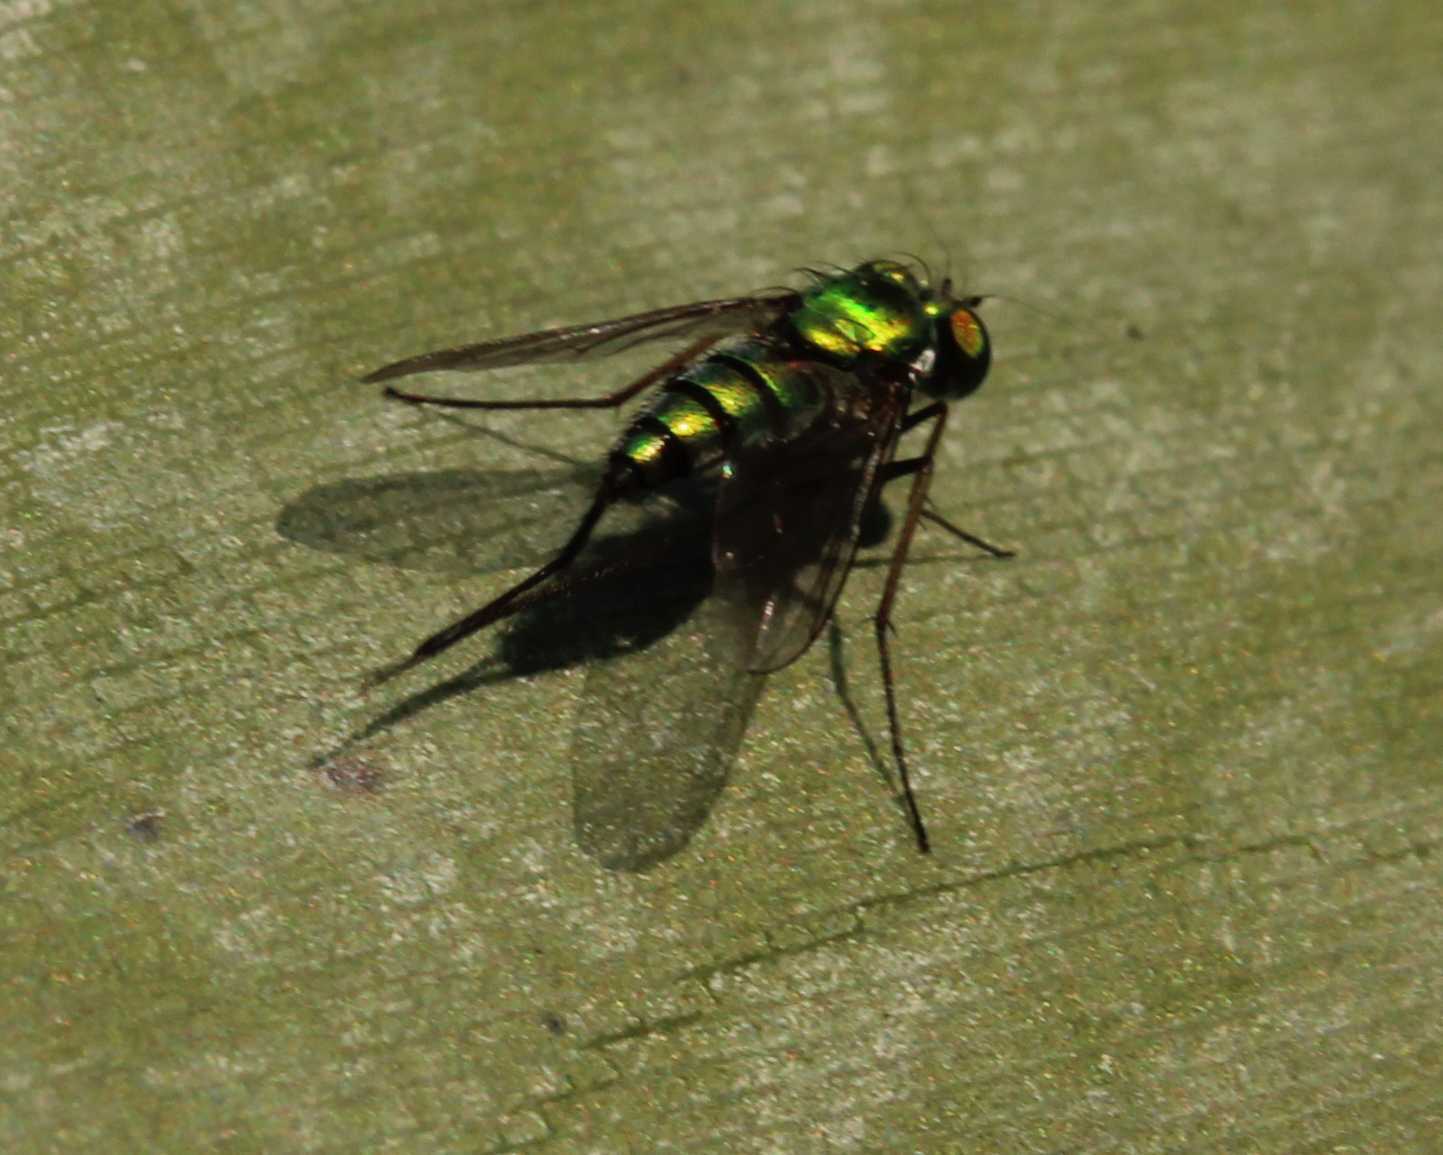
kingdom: Animalia
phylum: Arthropoda
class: Insecta
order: Diptera
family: Dolichopodidae
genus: Condylostylus
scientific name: Condylostylus
